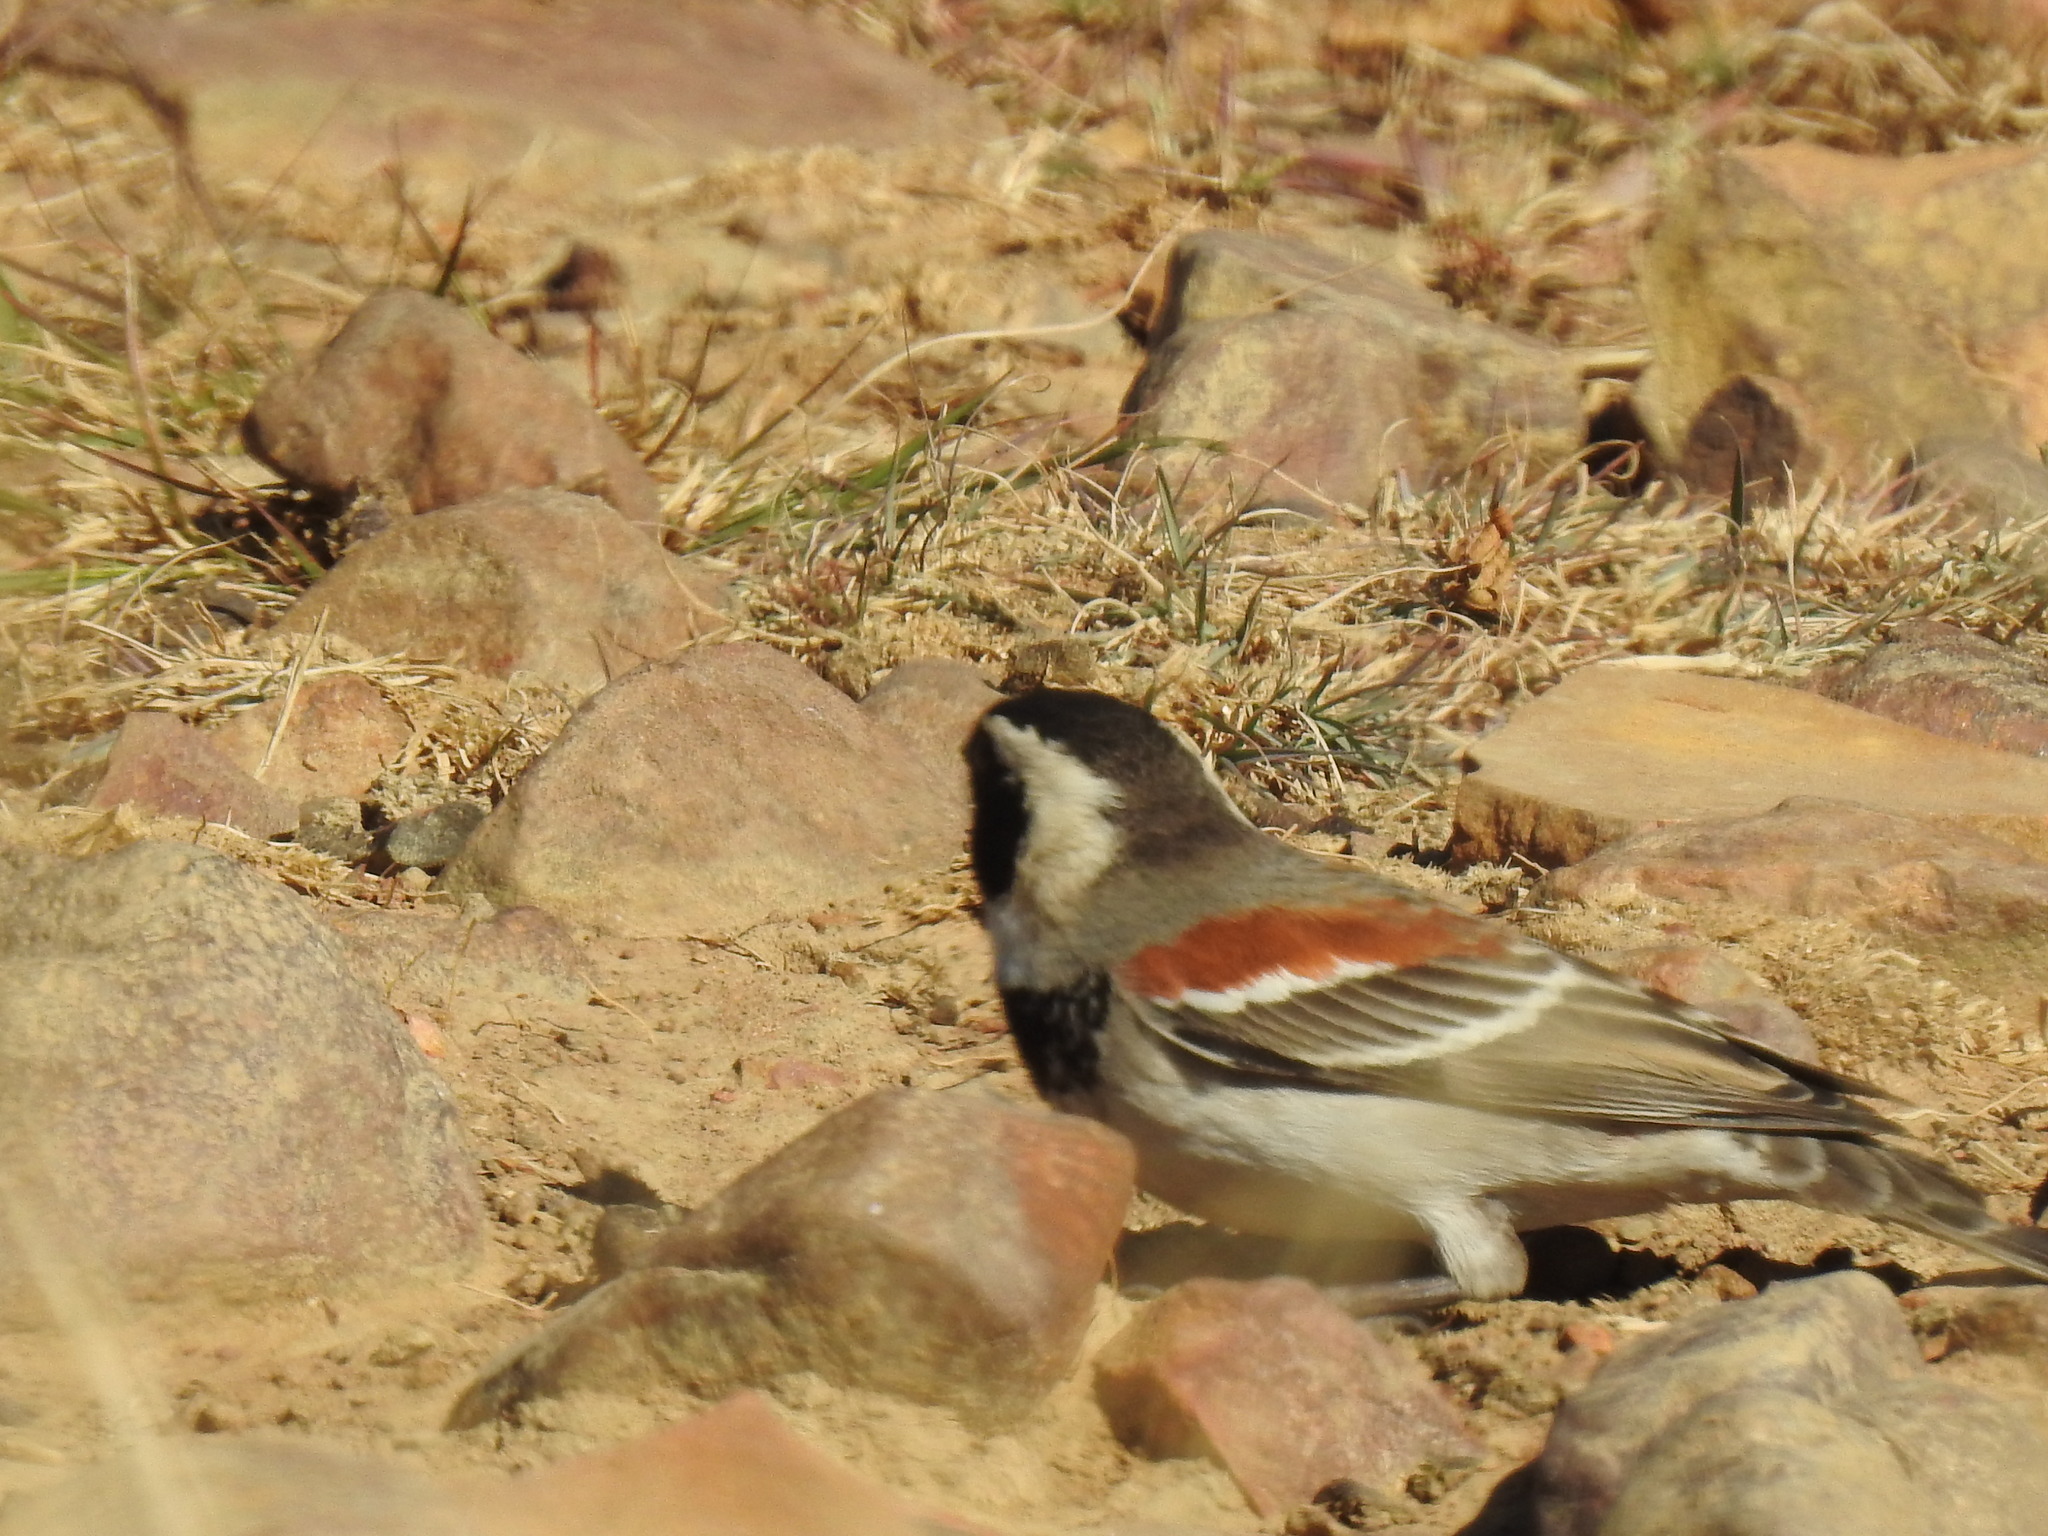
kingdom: Animalia
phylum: Chordata
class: Aves
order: Passeriformes
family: Passeridae
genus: Passer
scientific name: Passer melanurus
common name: Cape sparrow
